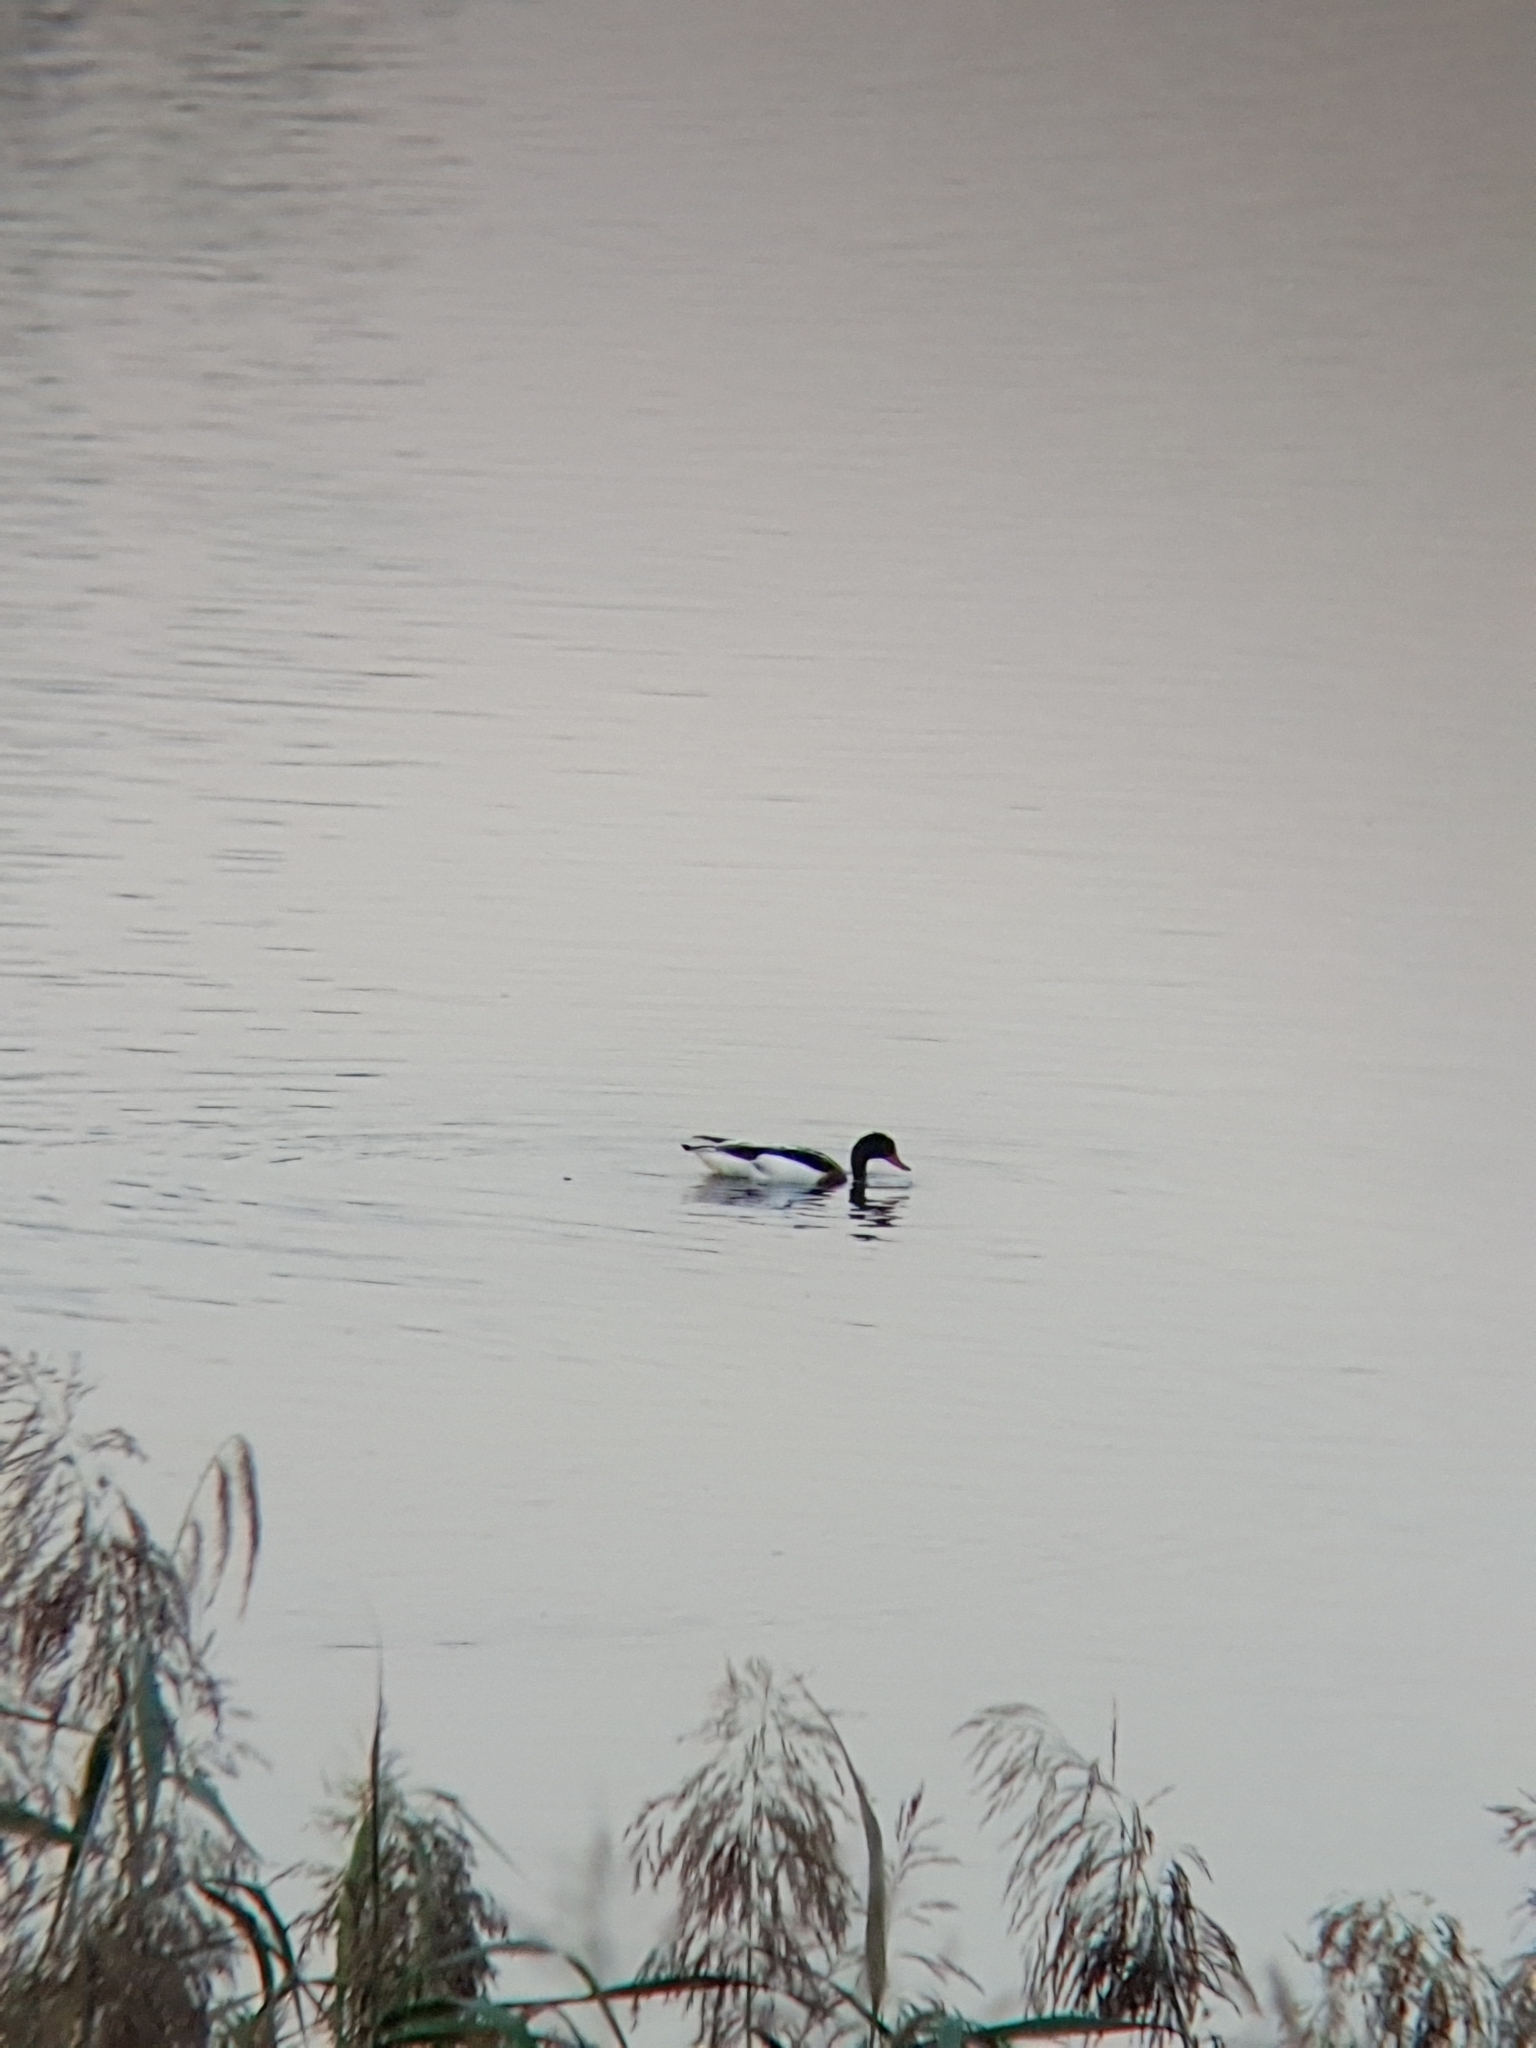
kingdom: Animalia
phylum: Chordata
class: Aves
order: Anseriformes
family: Anatidae
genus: Tadorna
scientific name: Tadorna tadorna
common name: Common shelduck
